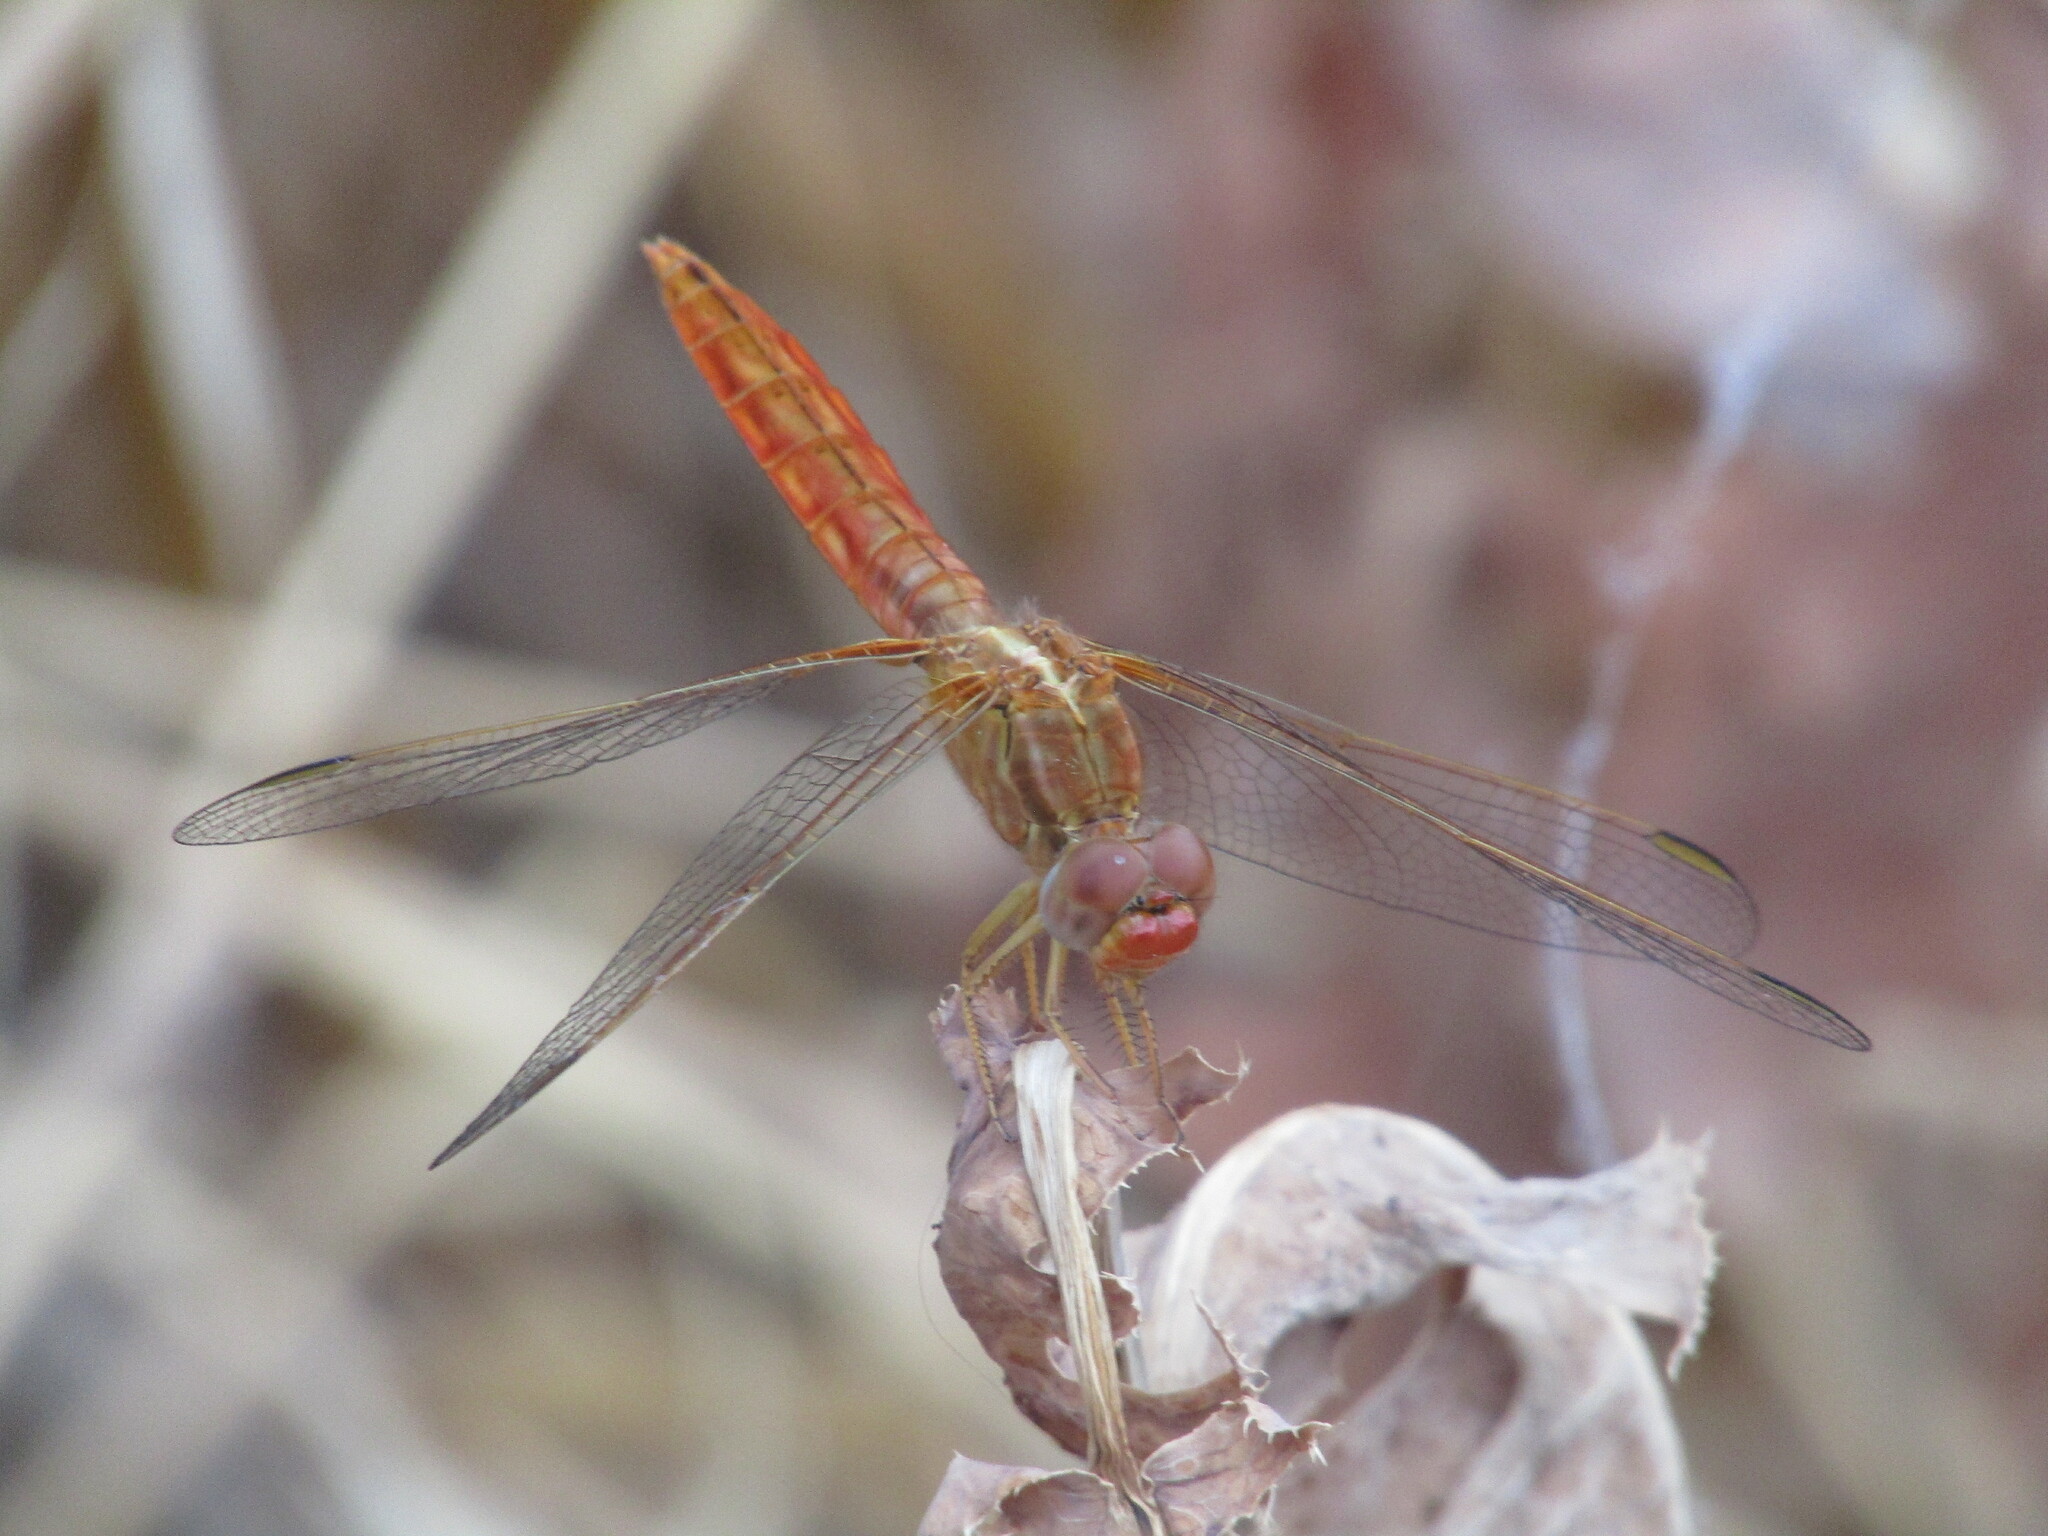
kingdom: Animalia
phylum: Arthropoda
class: Insecta
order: Odonata
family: Libellulidae
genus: Crocothemis
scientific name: Crocothemis erythraea
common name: Scarlet dragonfly
